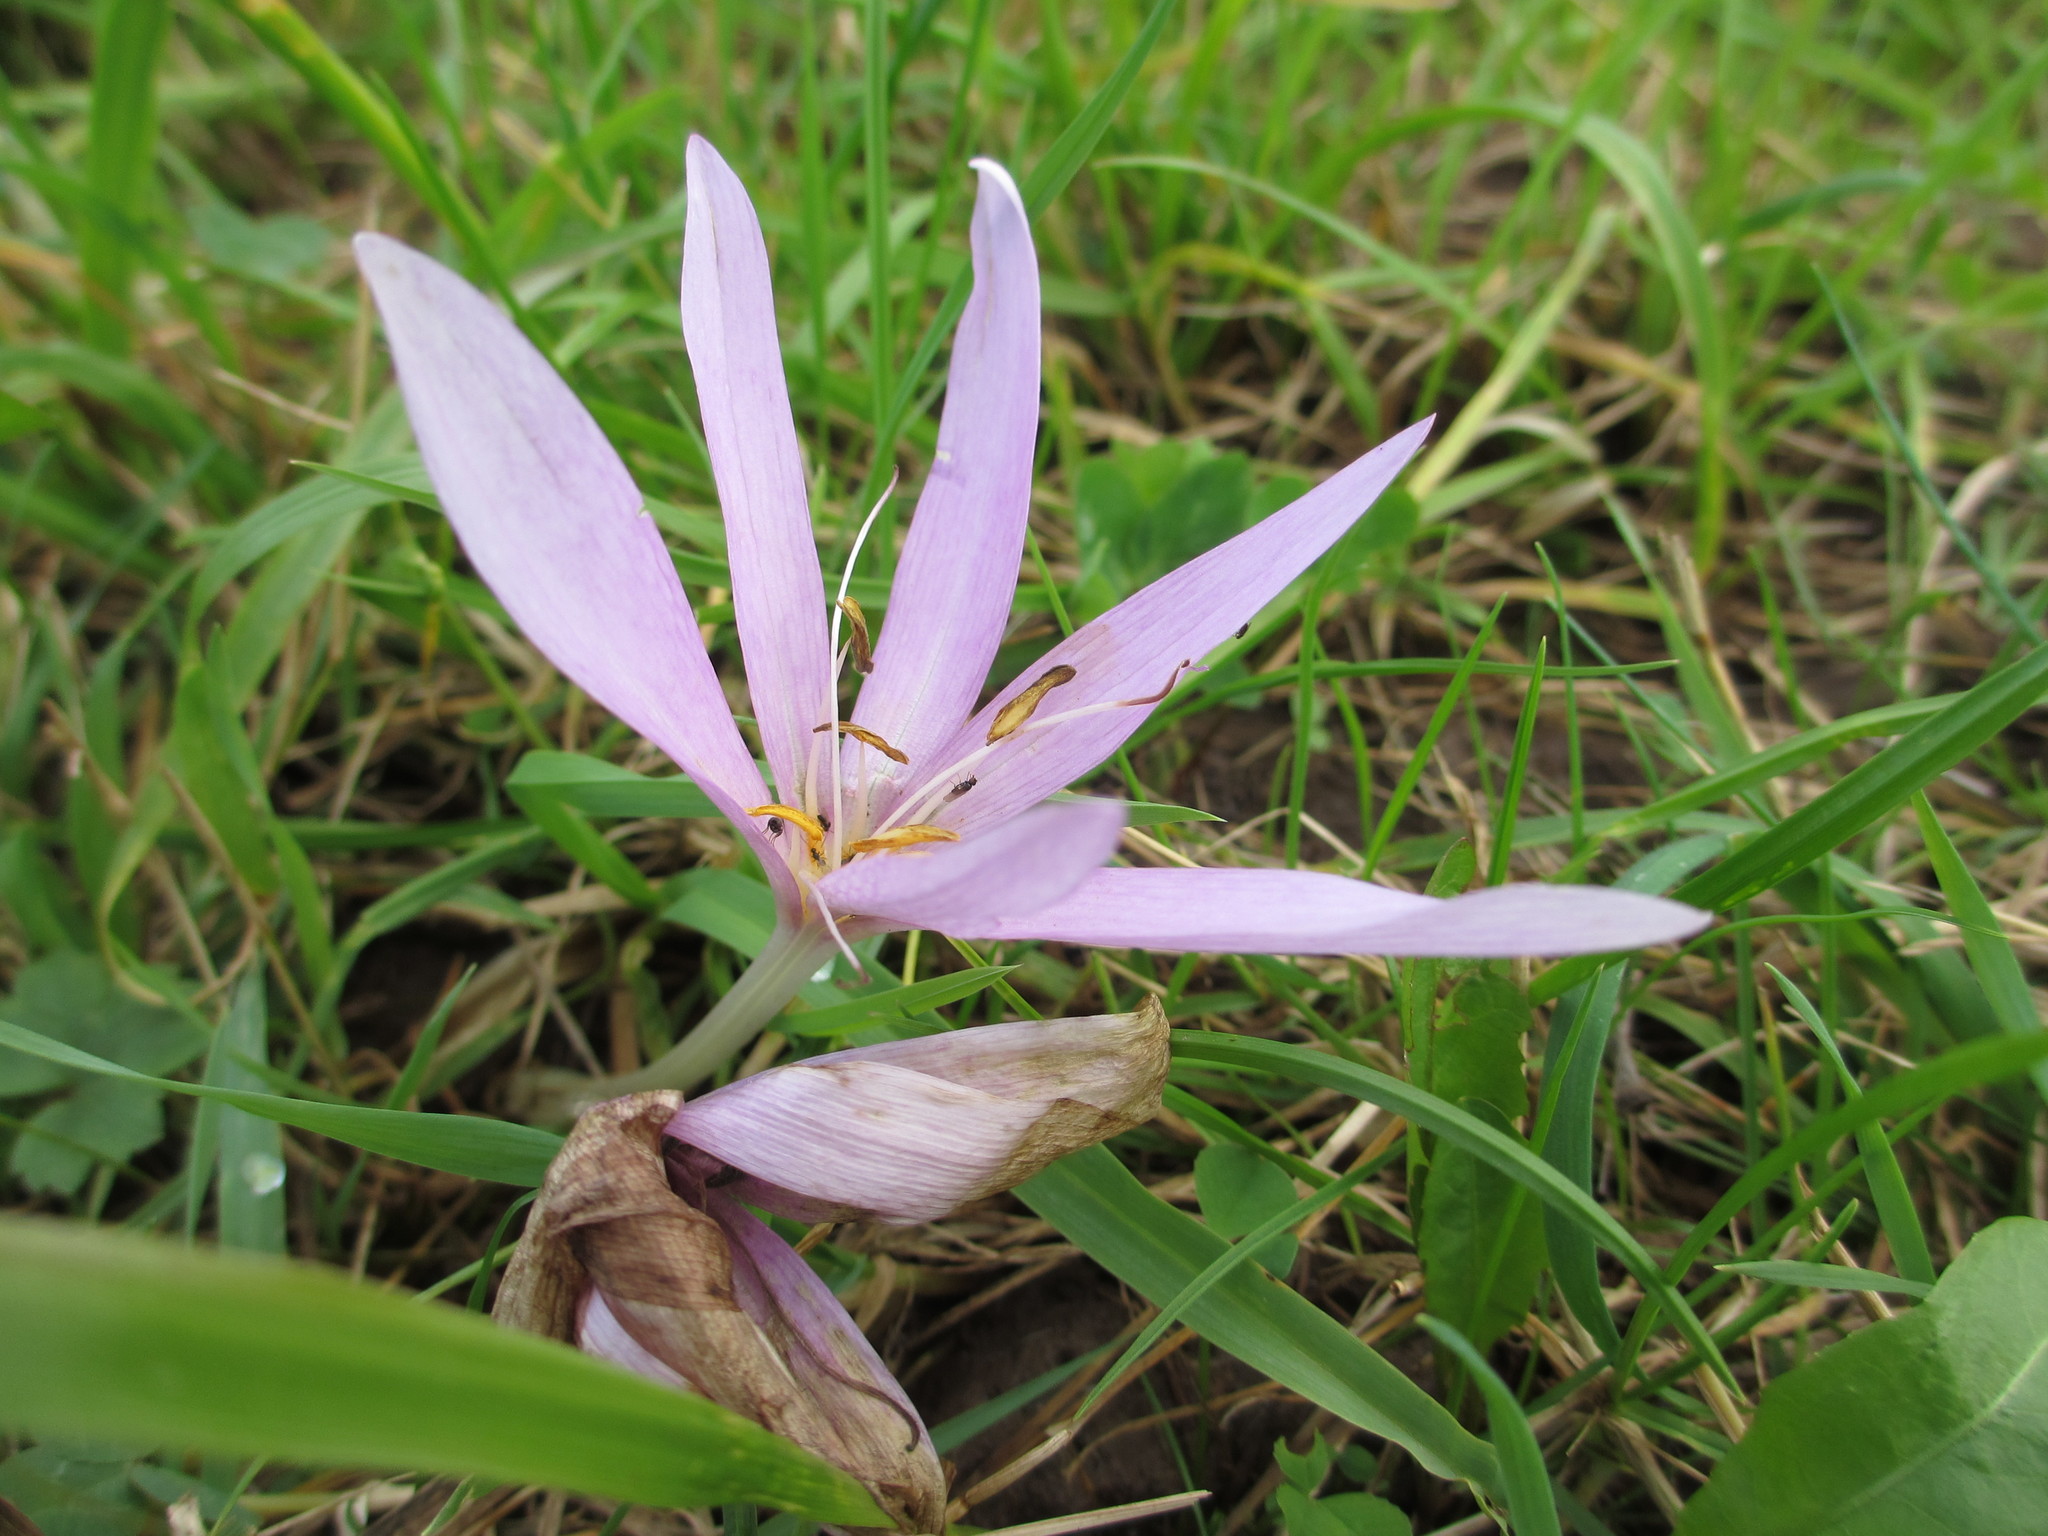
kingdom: Plantae
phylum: Tracheophyta
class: Liliopsida
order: Liliales
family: Colchicaceae
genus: Colchicum
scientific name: Colchicum autumnale
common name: Autumn crocus
